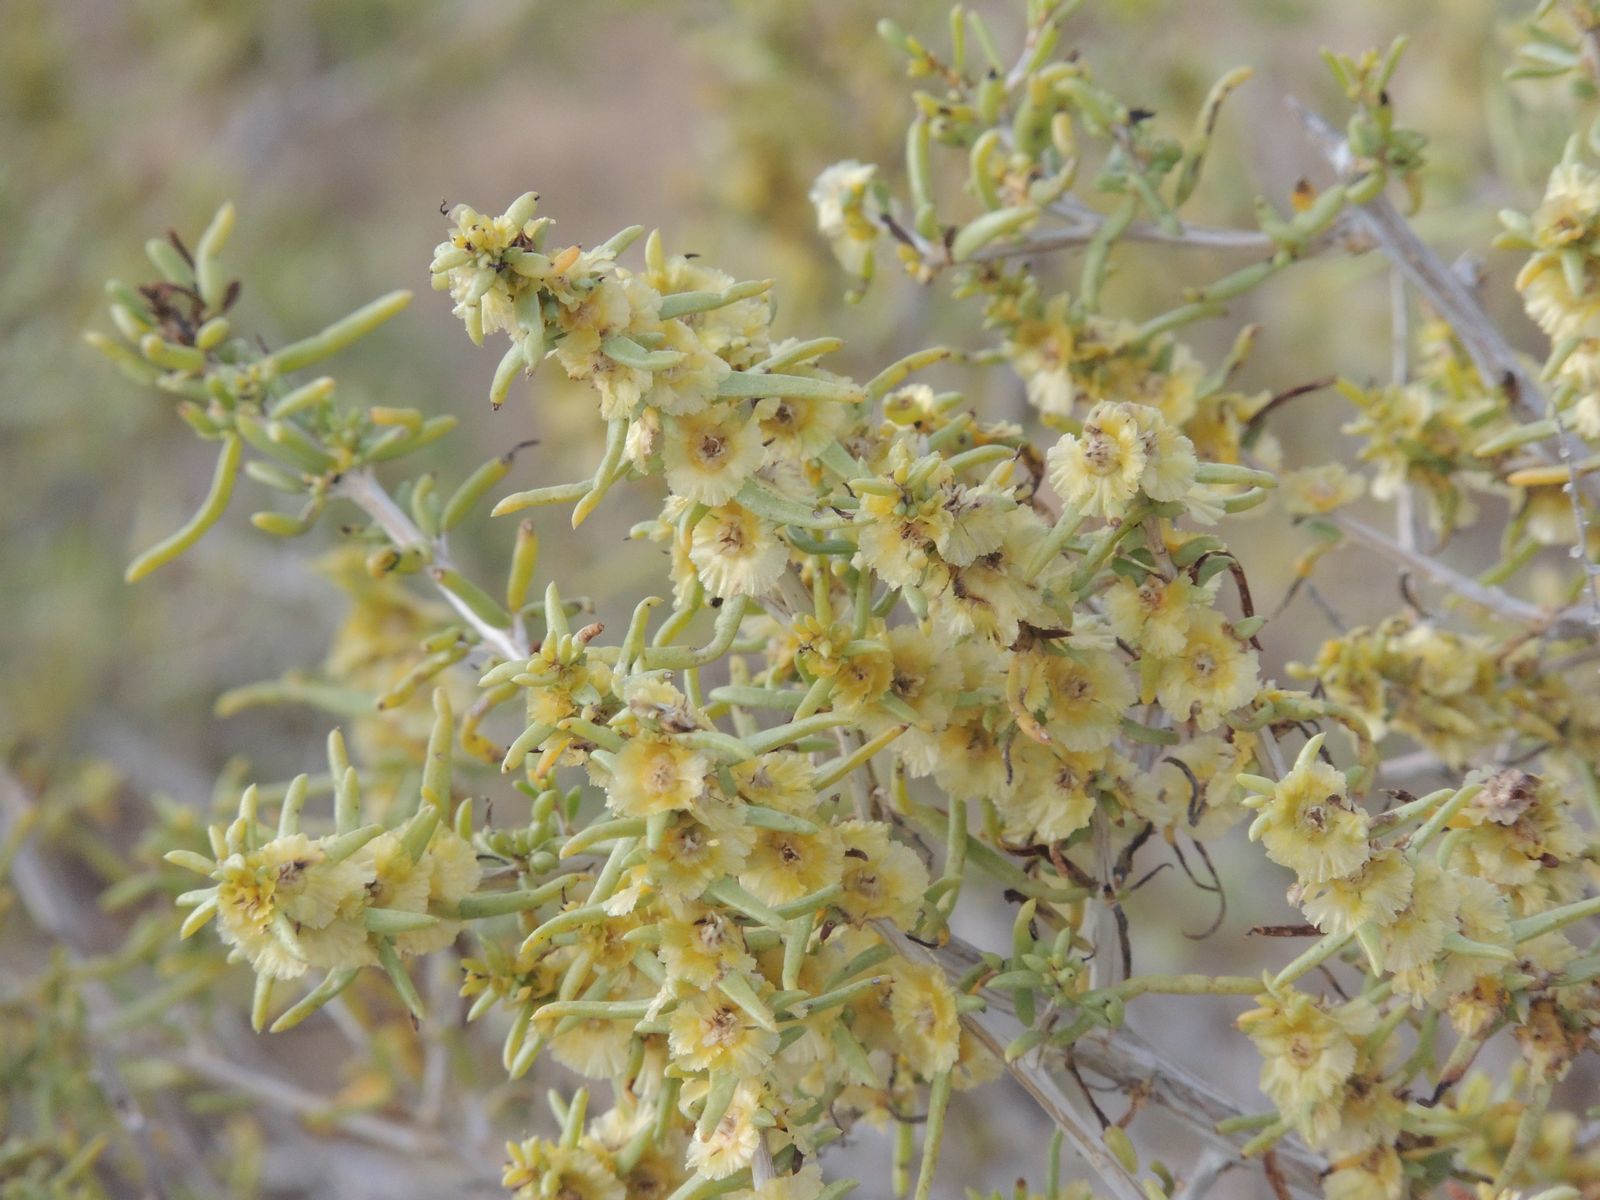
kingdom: Plantae
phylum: Tracheophyta
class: Magnoliopsida
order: Caryophyllales
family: Amaranthaceae
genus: Xylosalsola
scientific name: Xylosalsola arbuscula
